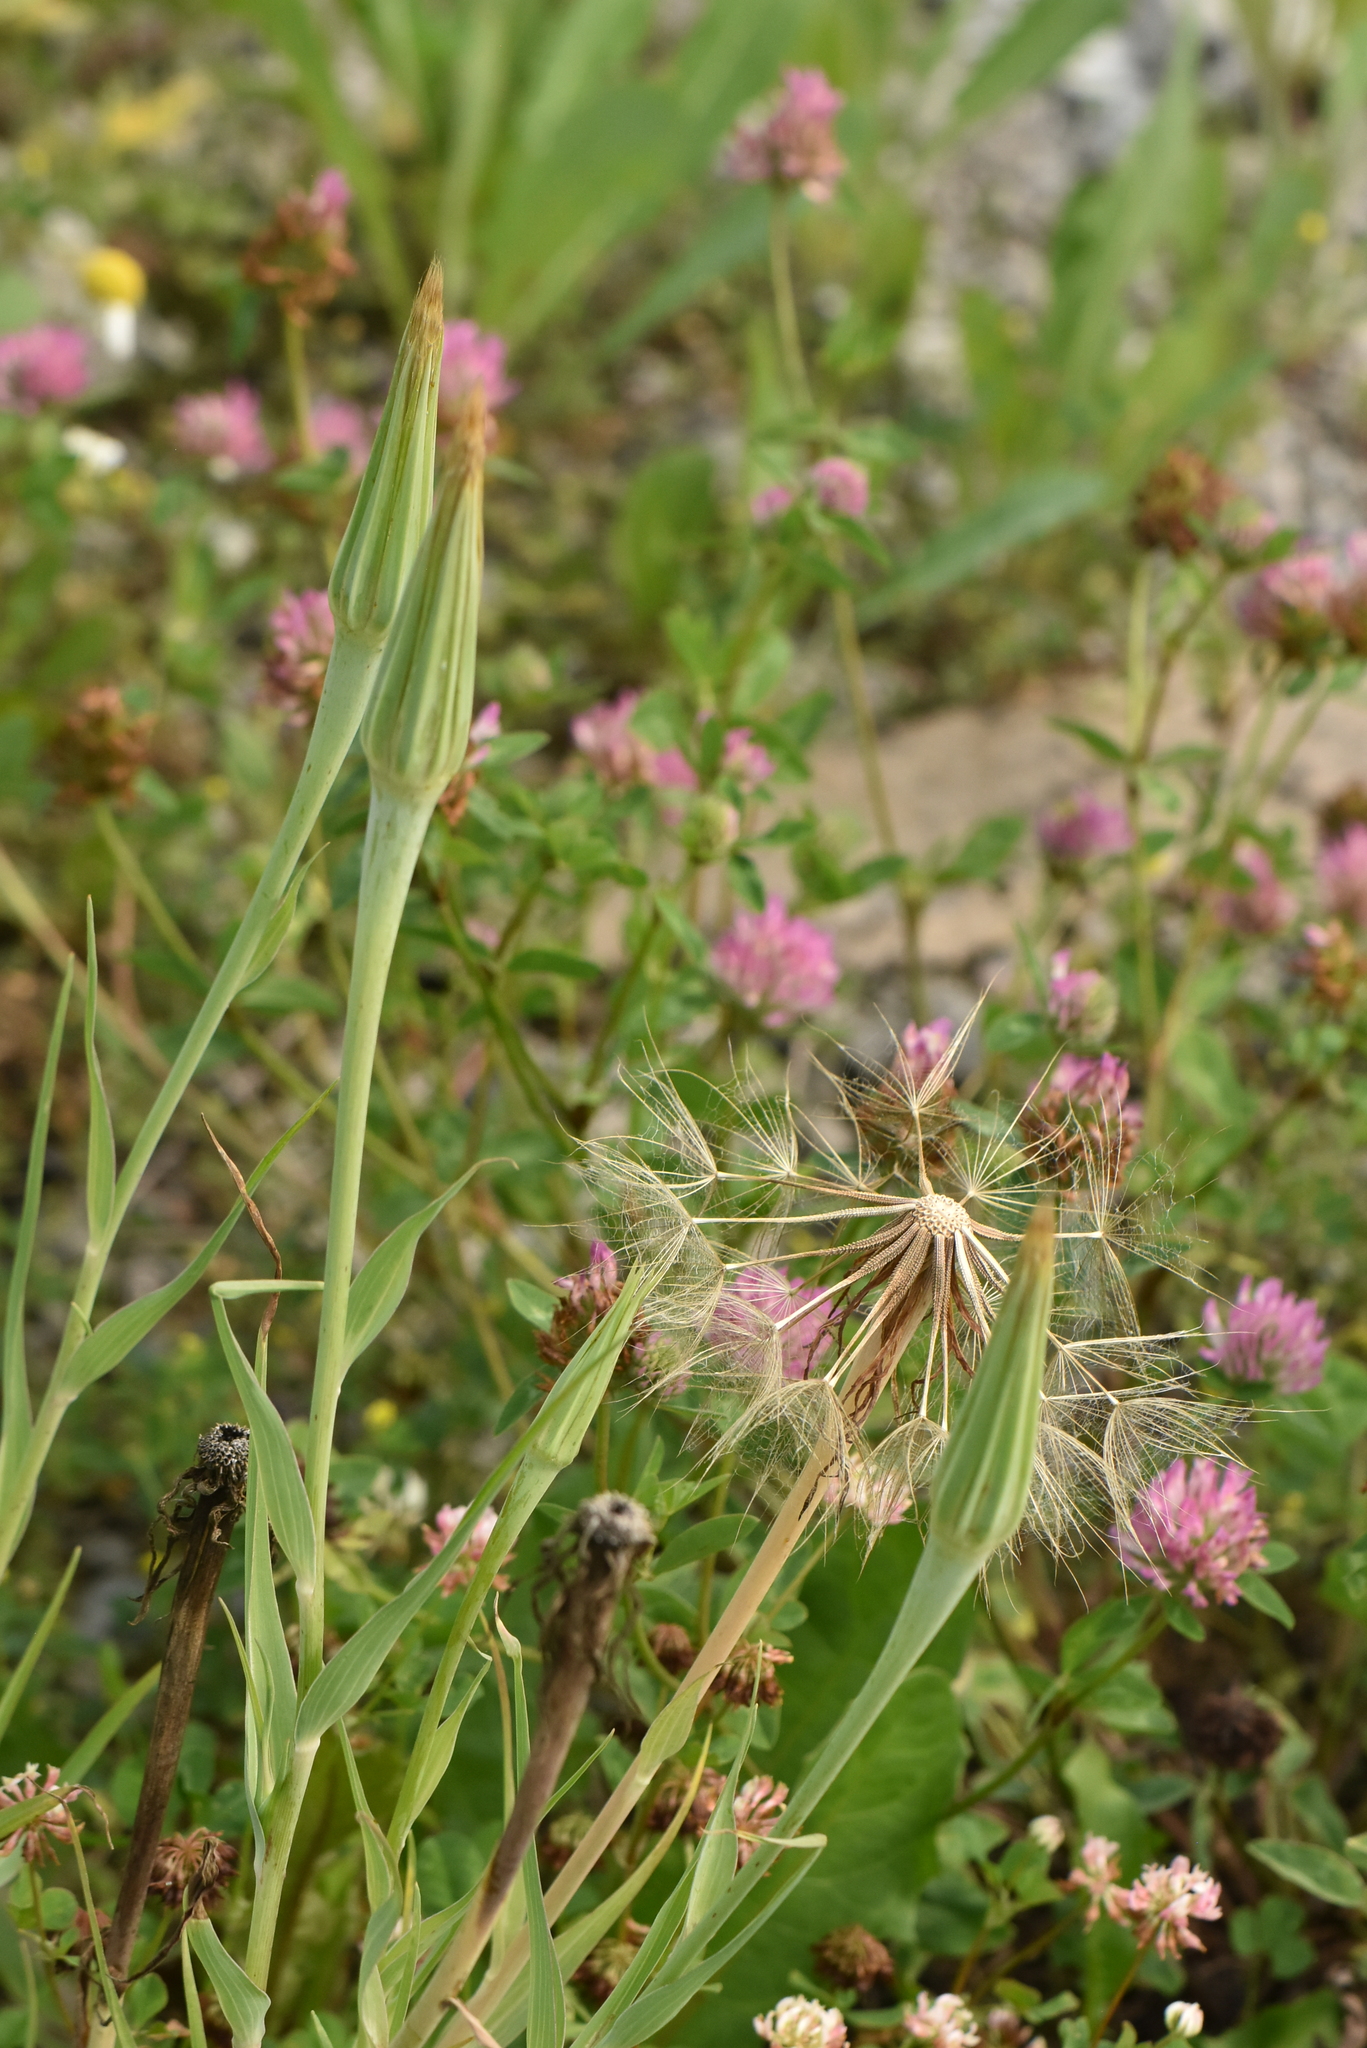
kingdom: Plantae
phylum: Tracheophyta
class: Magnoliopsida
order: Asterales
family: Asteraceae
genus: Tragopogon
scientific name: Tragopogon dubius
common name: Yellow salsify
